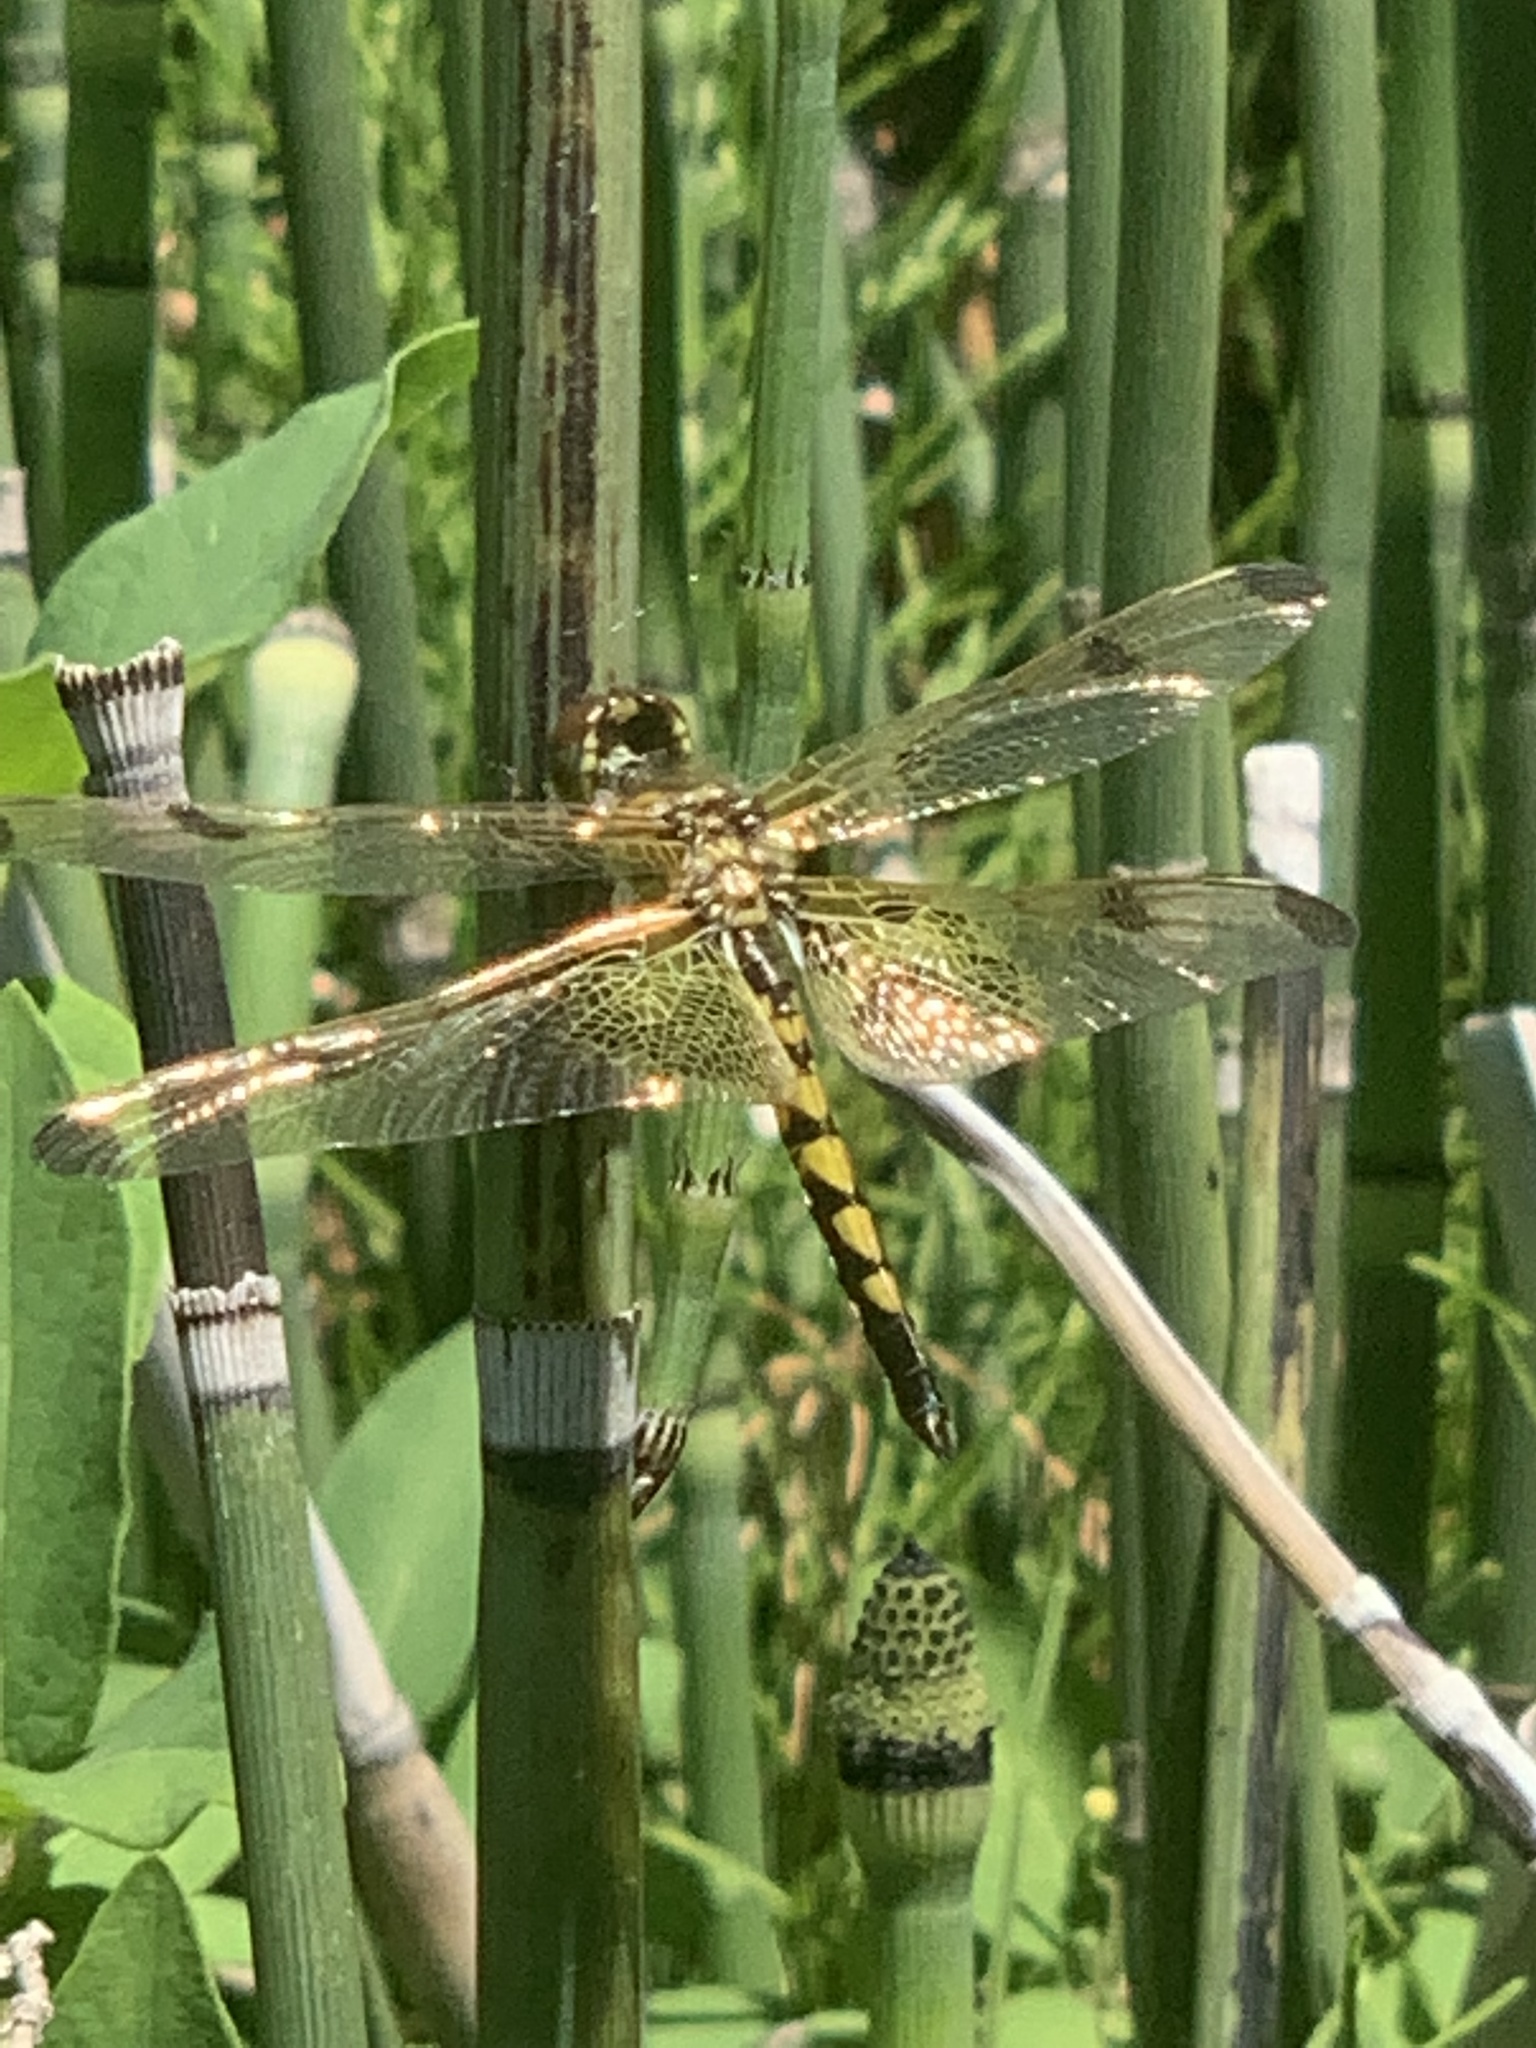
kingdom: Animalia
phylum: Arthropoda
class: Insecta
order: Odonata
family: Libellulidae
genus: Celithemis
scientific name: Celithemis elisa
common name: Calico pennant
